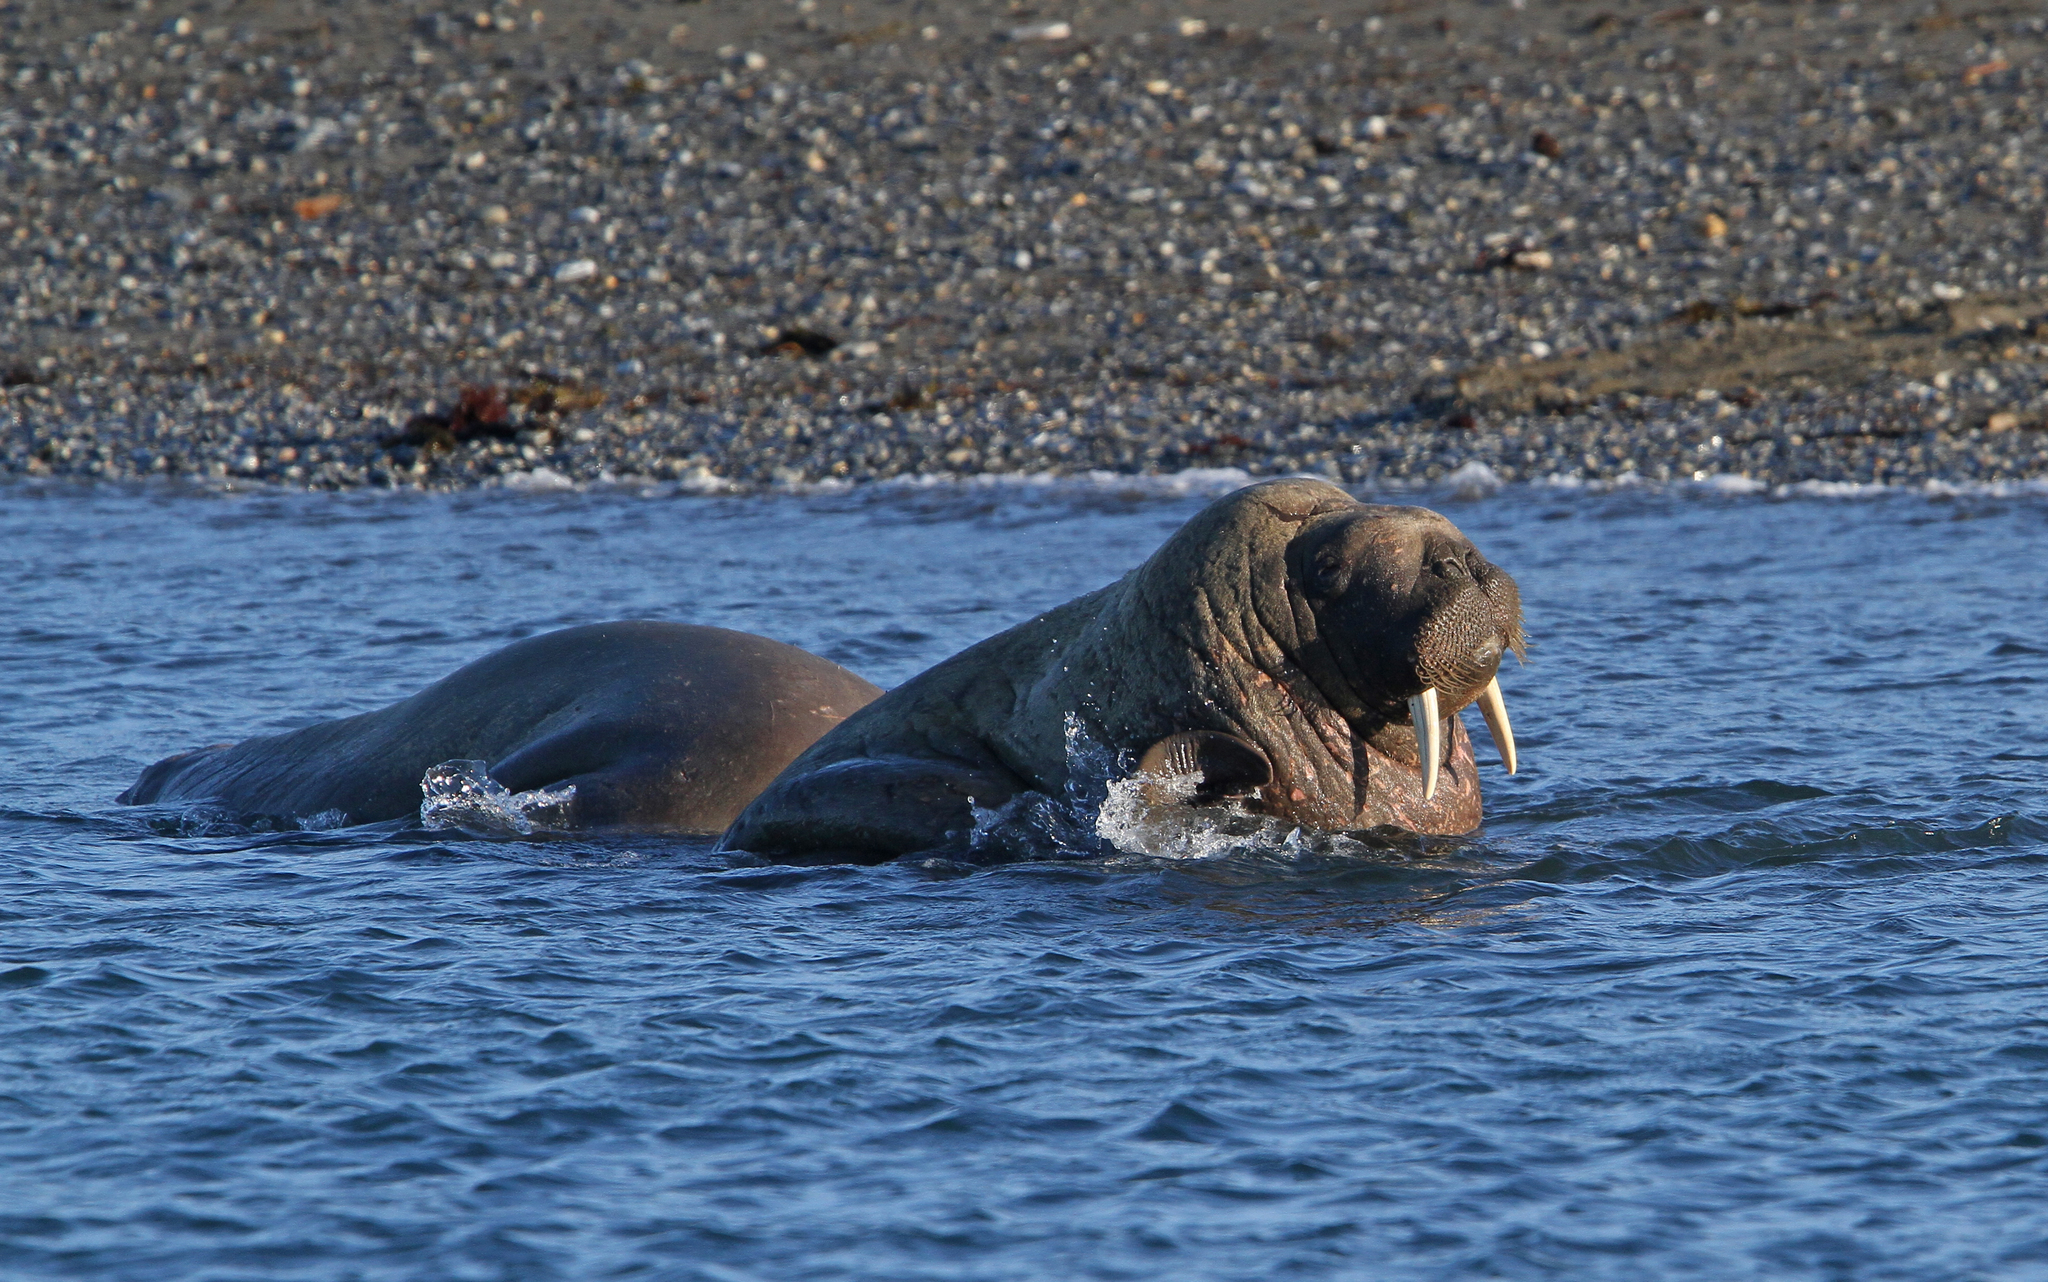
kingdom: Animalia
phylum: Chordata
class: Mammalia
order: Carnivora
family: Odobenidae
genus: Odobenus
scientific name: Odobenus rosmarus
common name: Walrus
